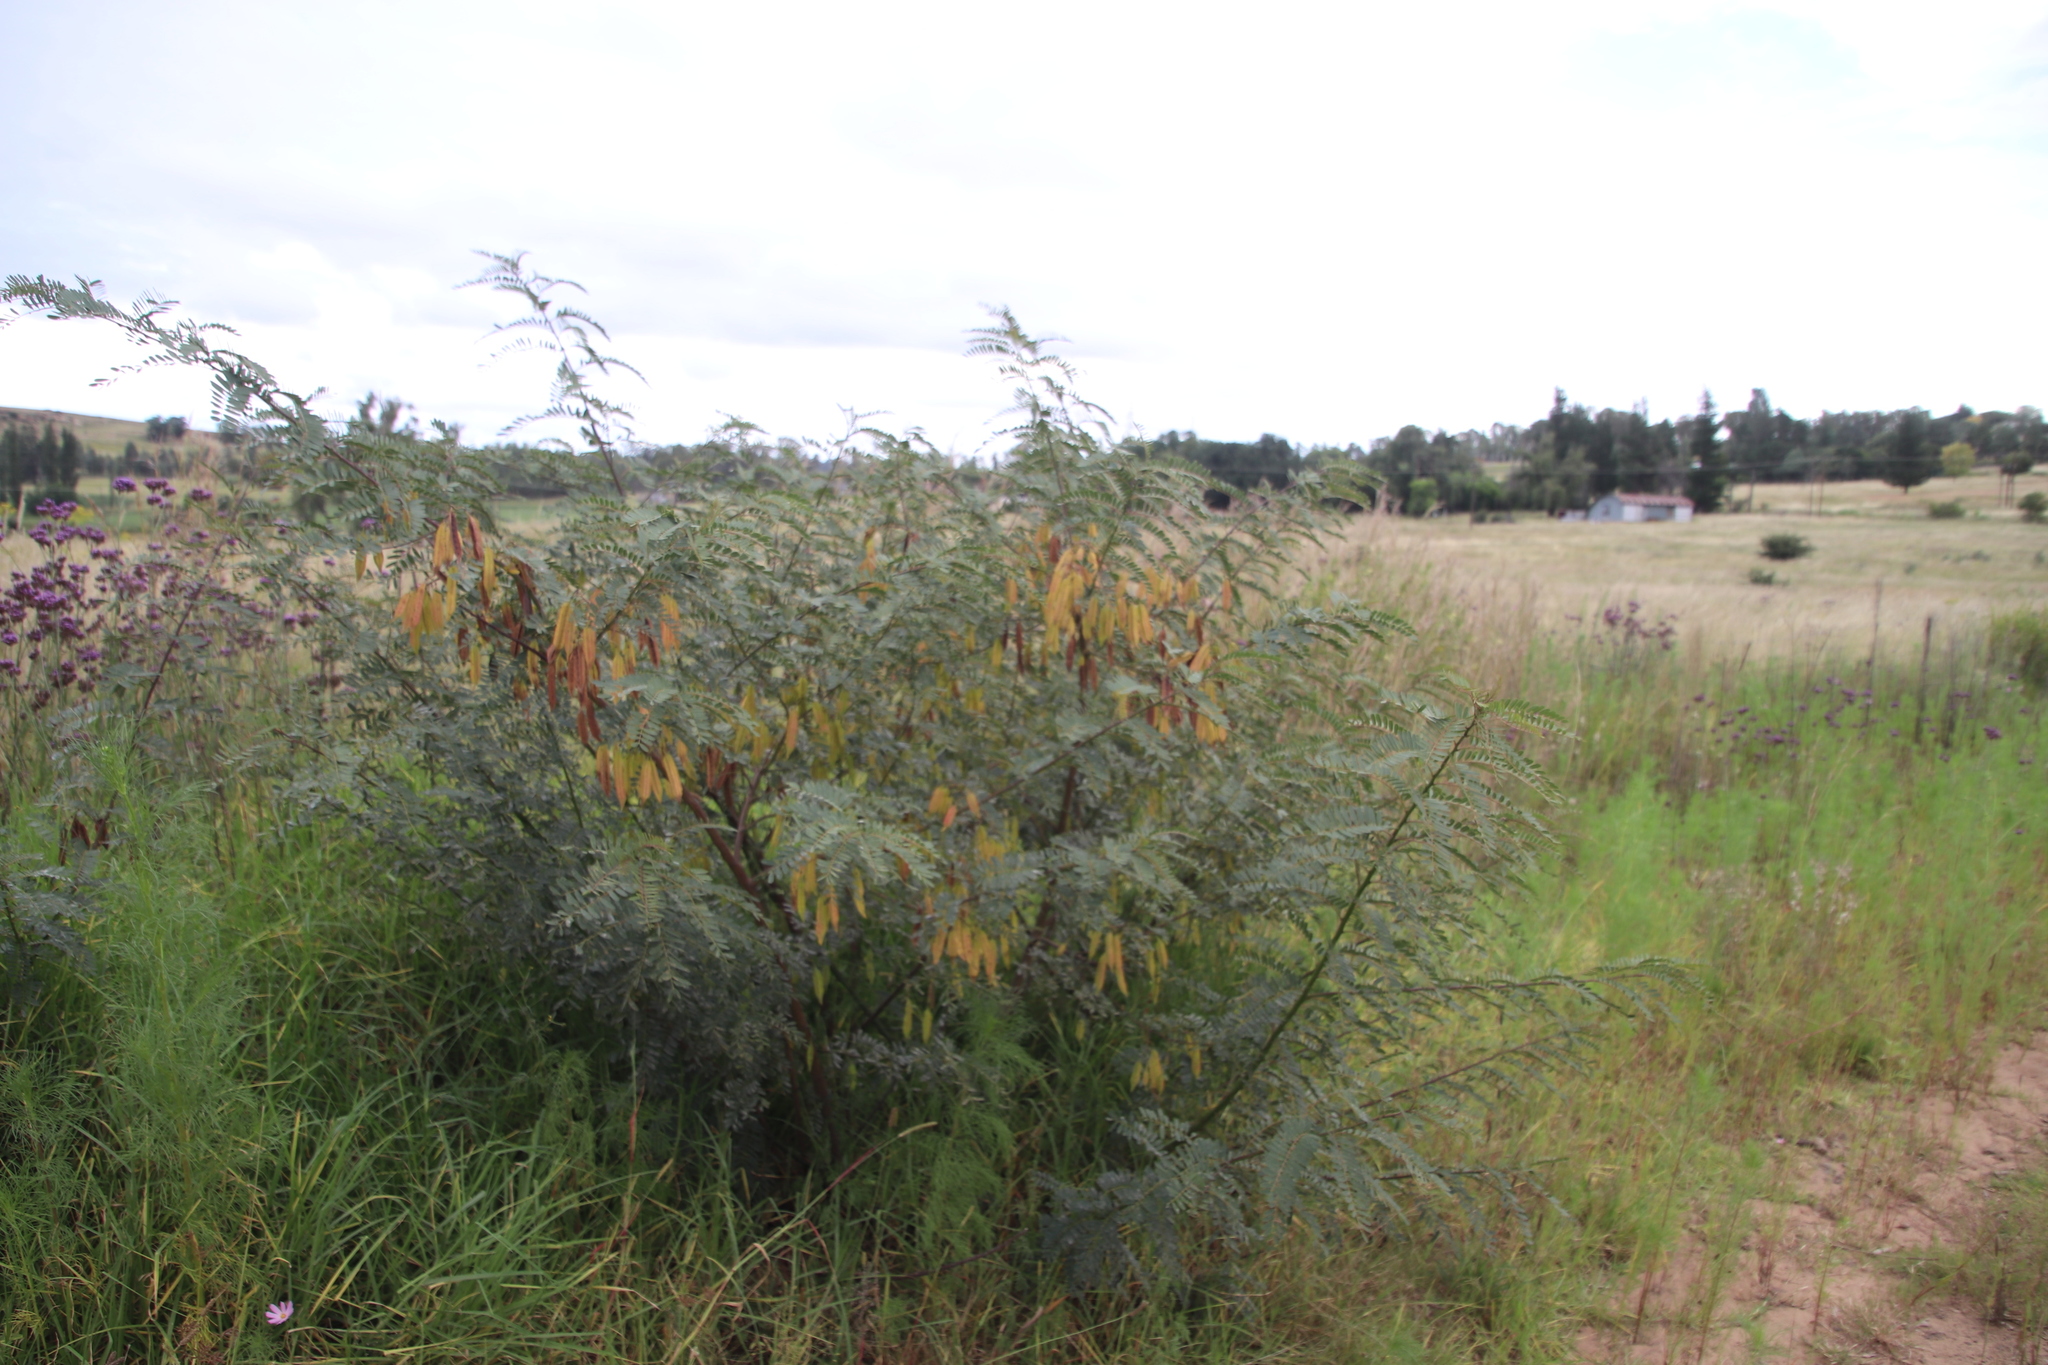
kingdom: Plantae
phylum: Tracheophyta
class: Magnoliopsida
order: Fabales
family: Fabaceae
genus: Sesbania
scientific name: Sesbania punicea
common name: Rattlebox
